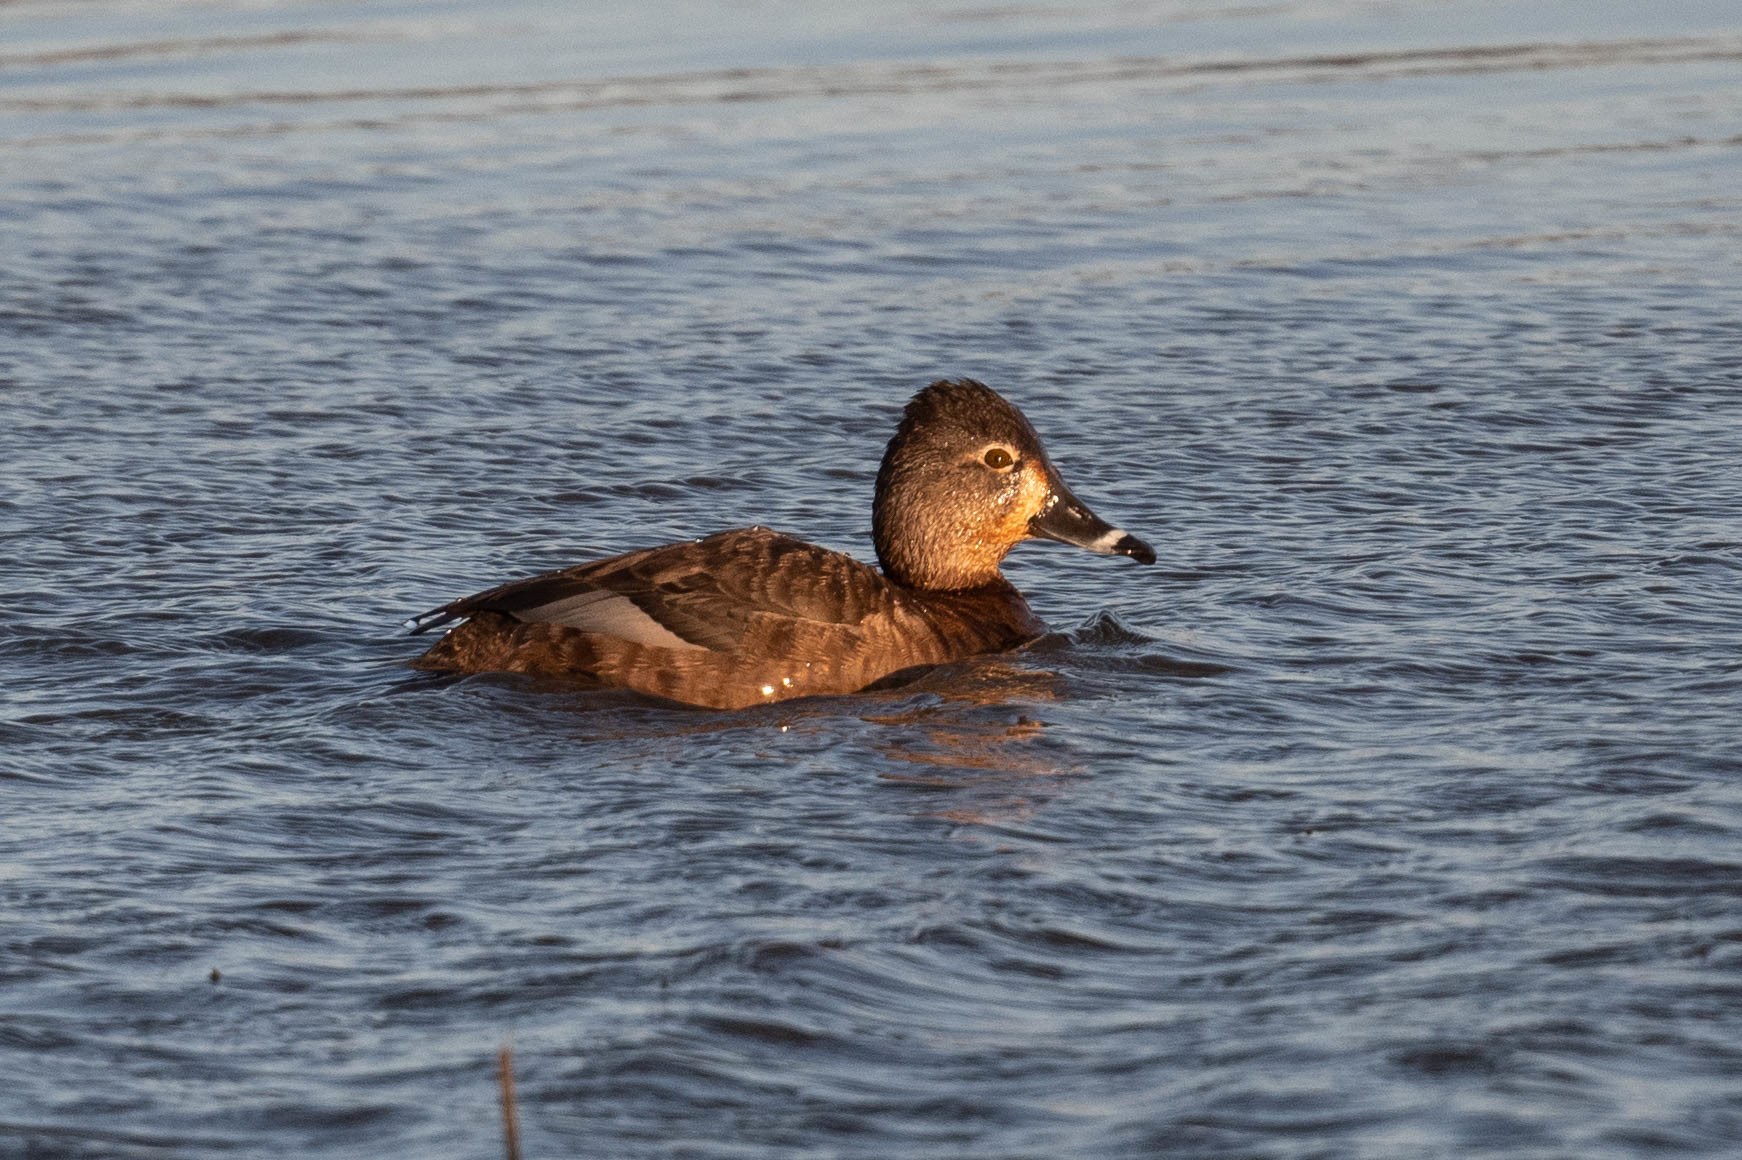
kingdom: Animalia
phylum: Chordata
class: Aves
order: Anseriformes
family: Anatidae
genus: Aythya
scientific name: Aythya collaris
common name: Ring-necked duck
